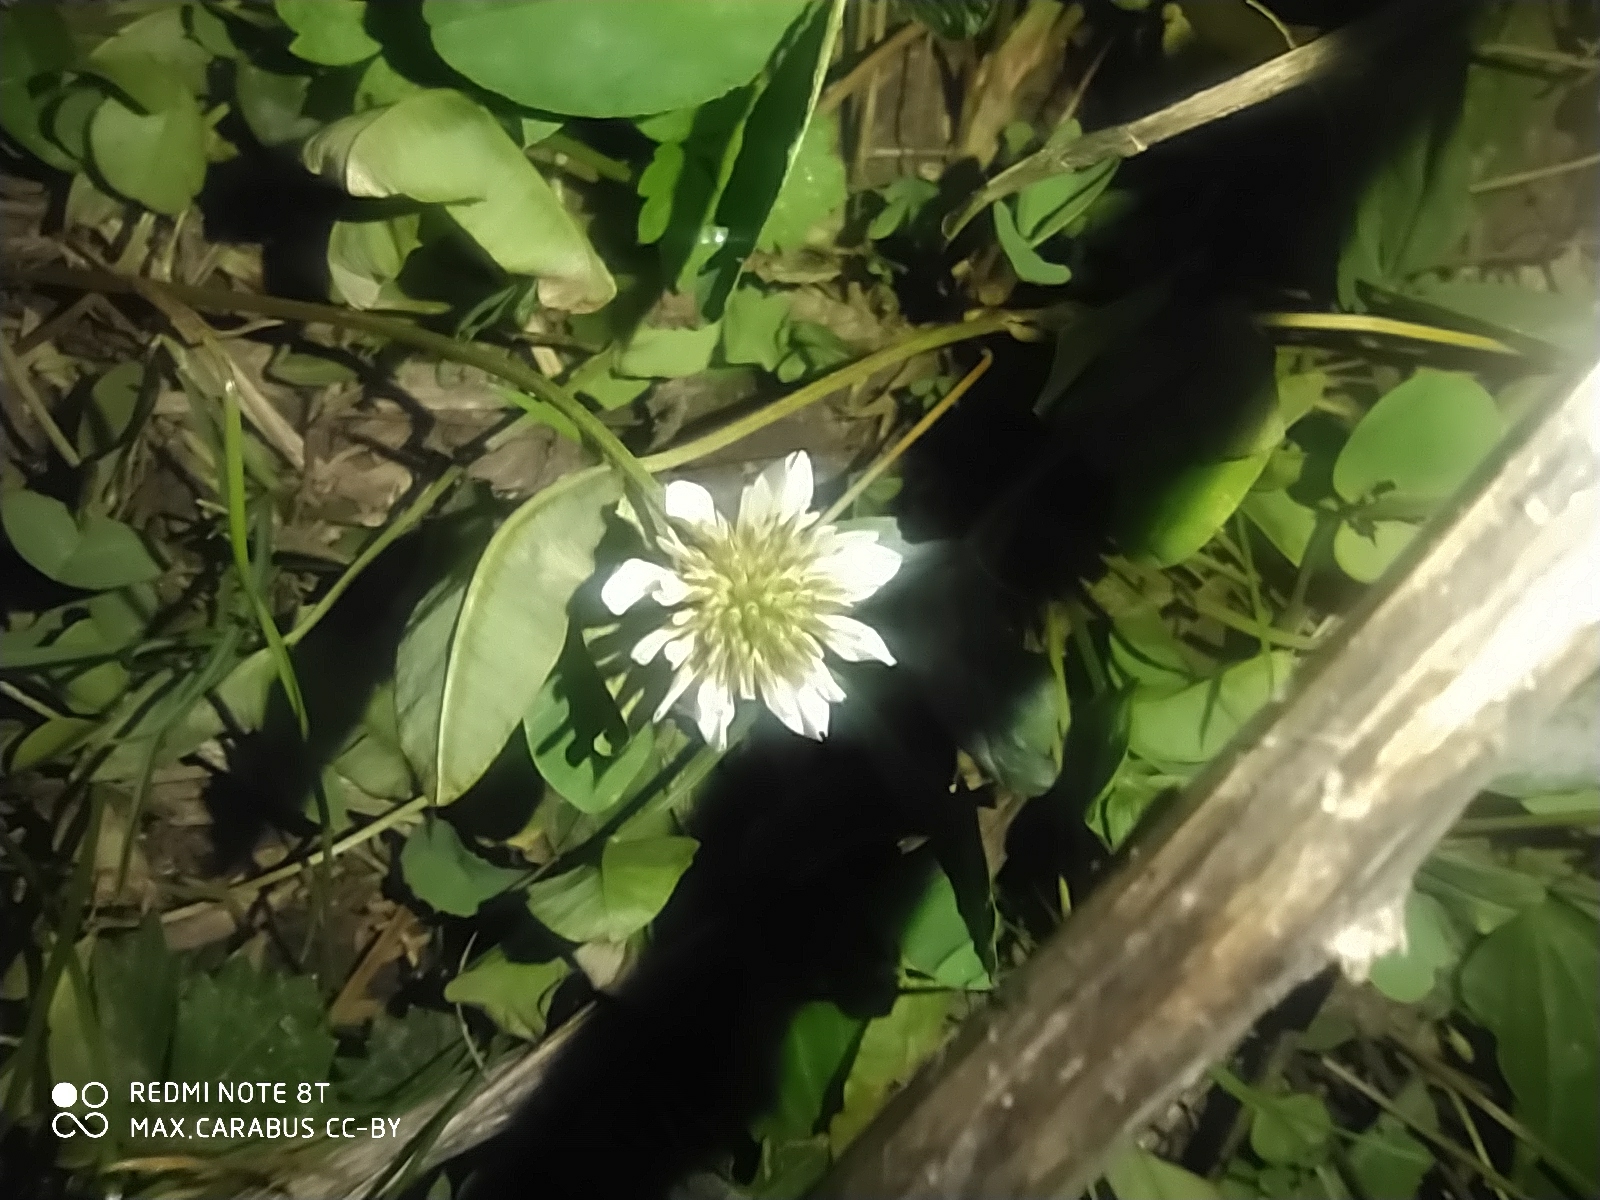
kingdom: Plantae
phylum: Tracheophyta
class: Magnoliopsida
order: Fabales
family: Fabaceae
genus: Trifolium
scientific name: Trifolium repens
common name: White clover
